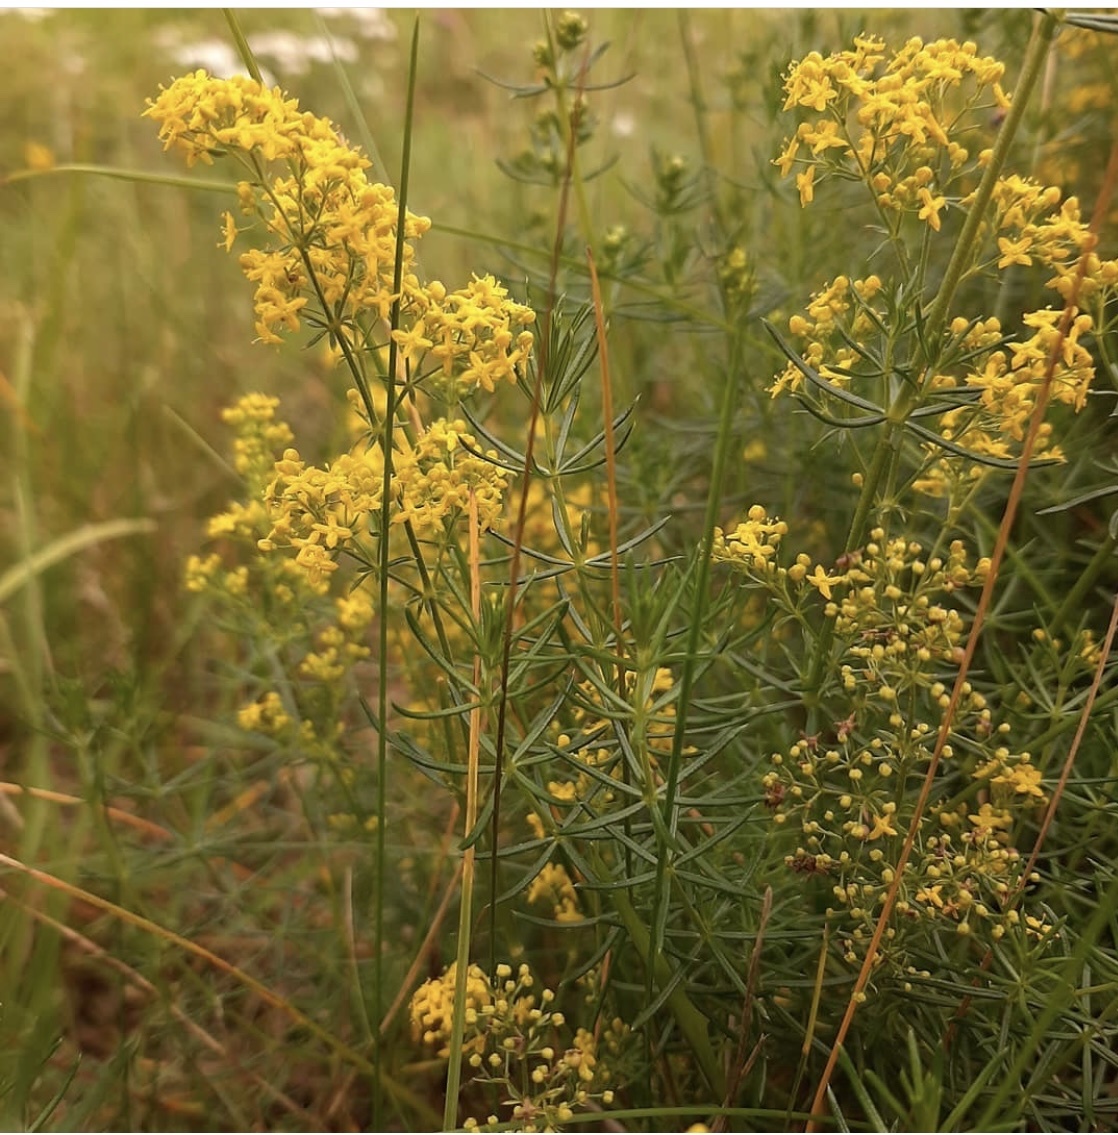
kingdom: Plantae
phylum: Tracheophyta
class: Magnoliopsida
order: Gentianales
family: Rubiaceae
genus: Galium
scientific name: Galium verum
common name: Lady's bedstraw
